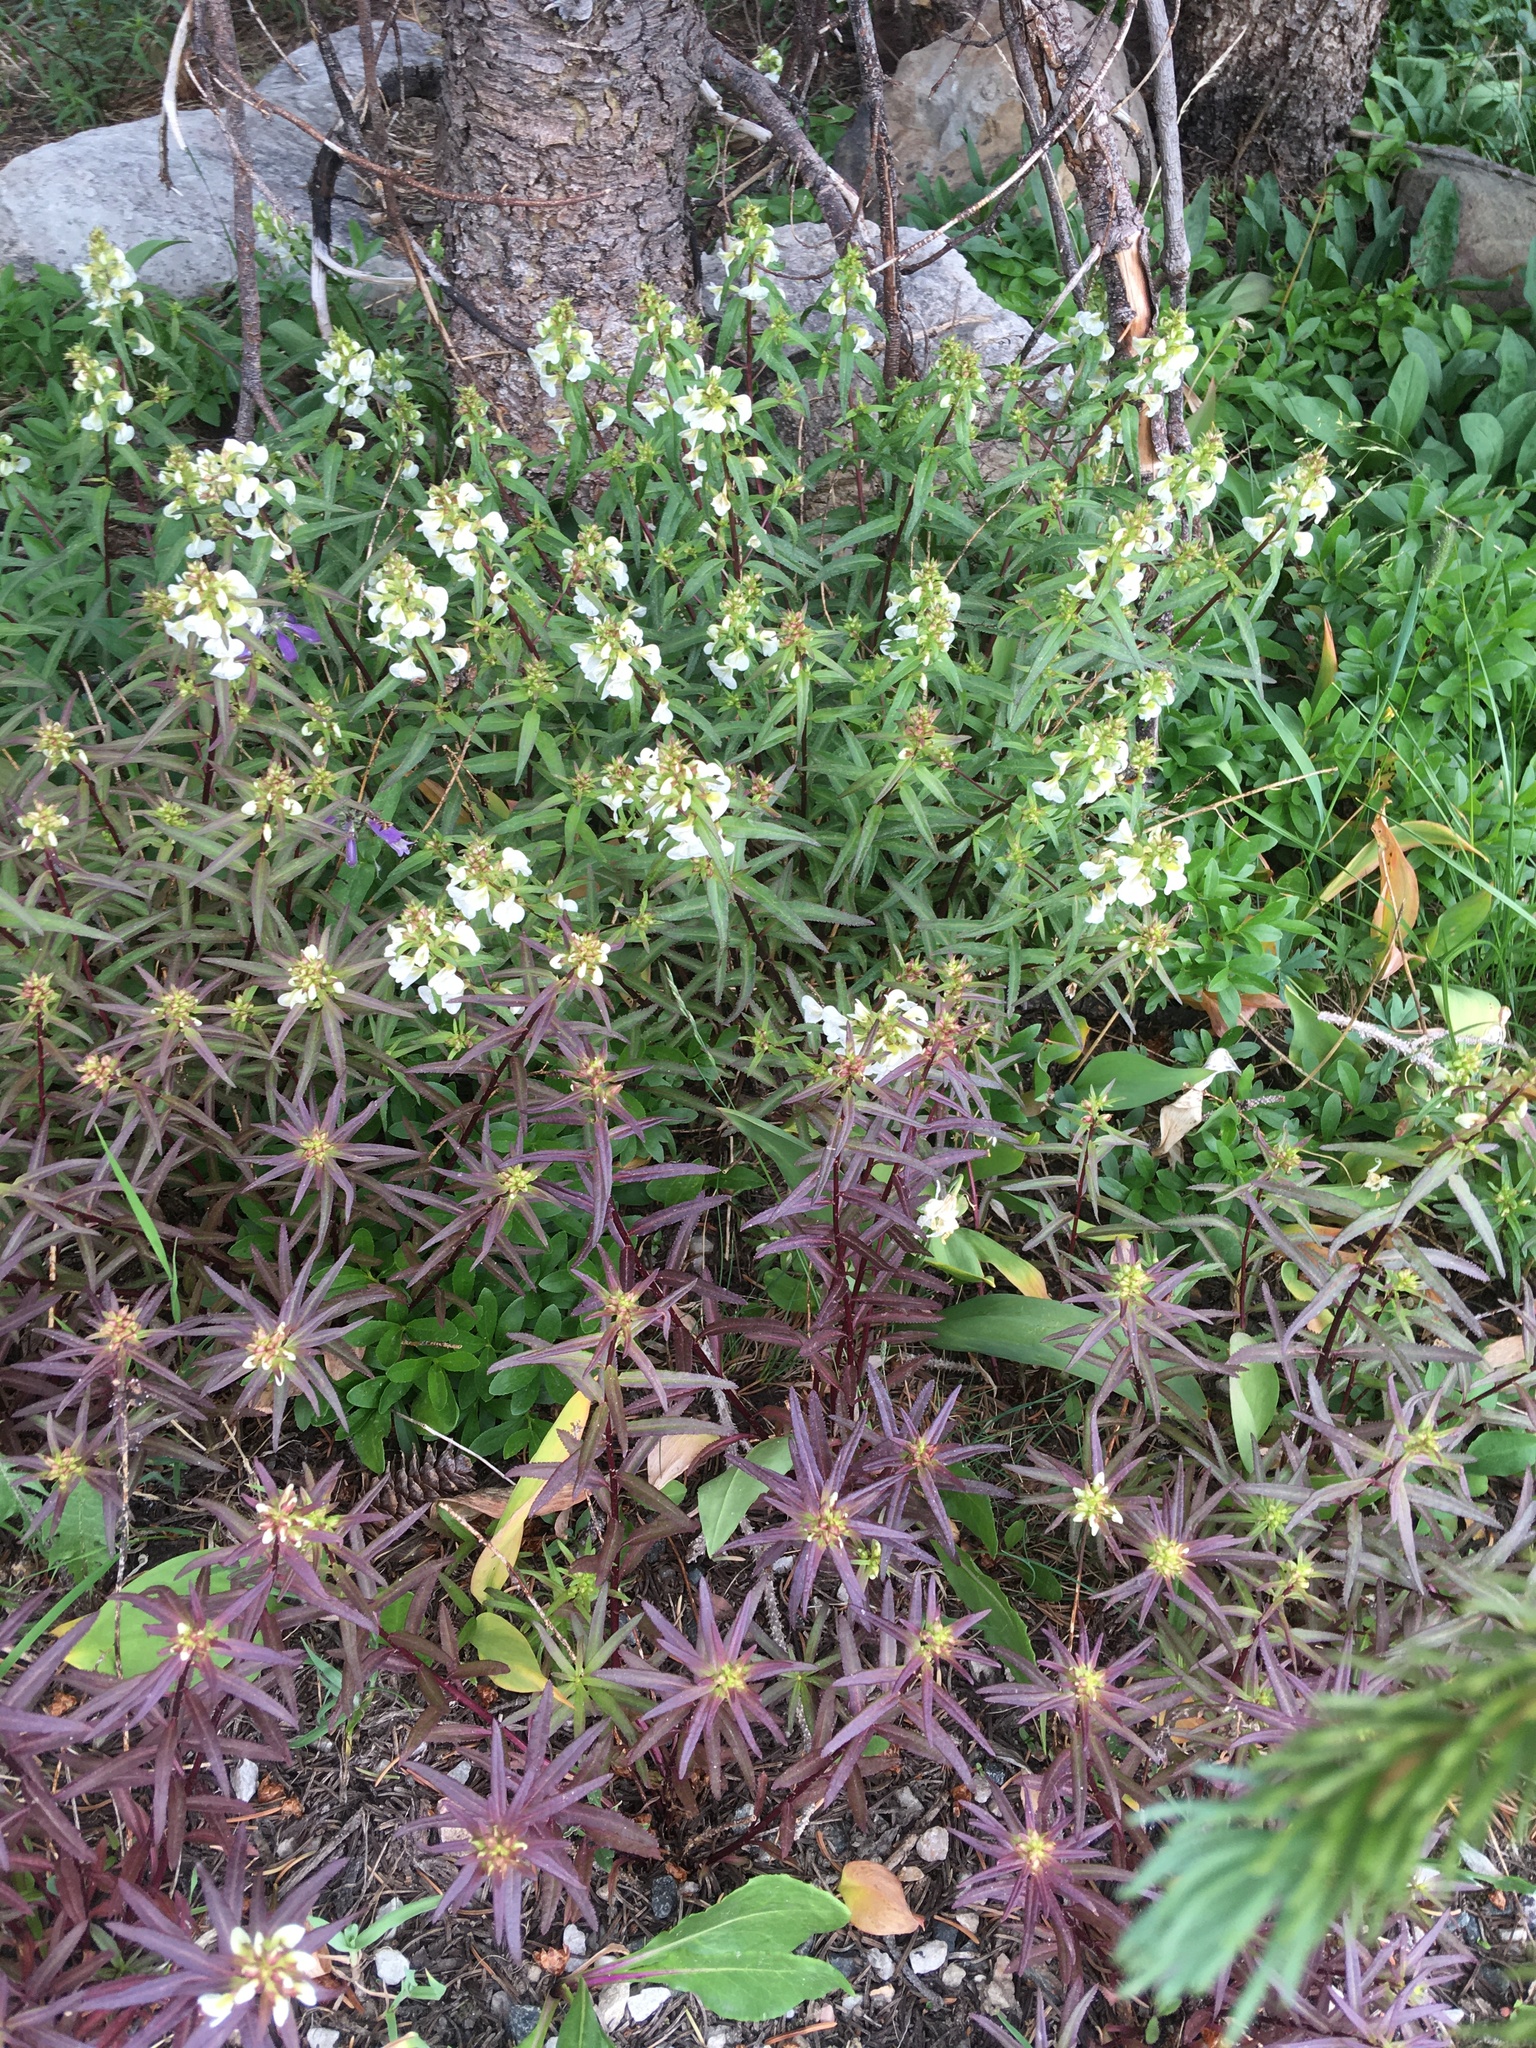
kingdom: Plantae
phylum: Tracheophyta
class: Magnoliopsida
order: Lamiales
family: Orobanchaceae
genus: Pedicularis
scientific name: Pedicularis racemosa
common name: Leafy lousewort
